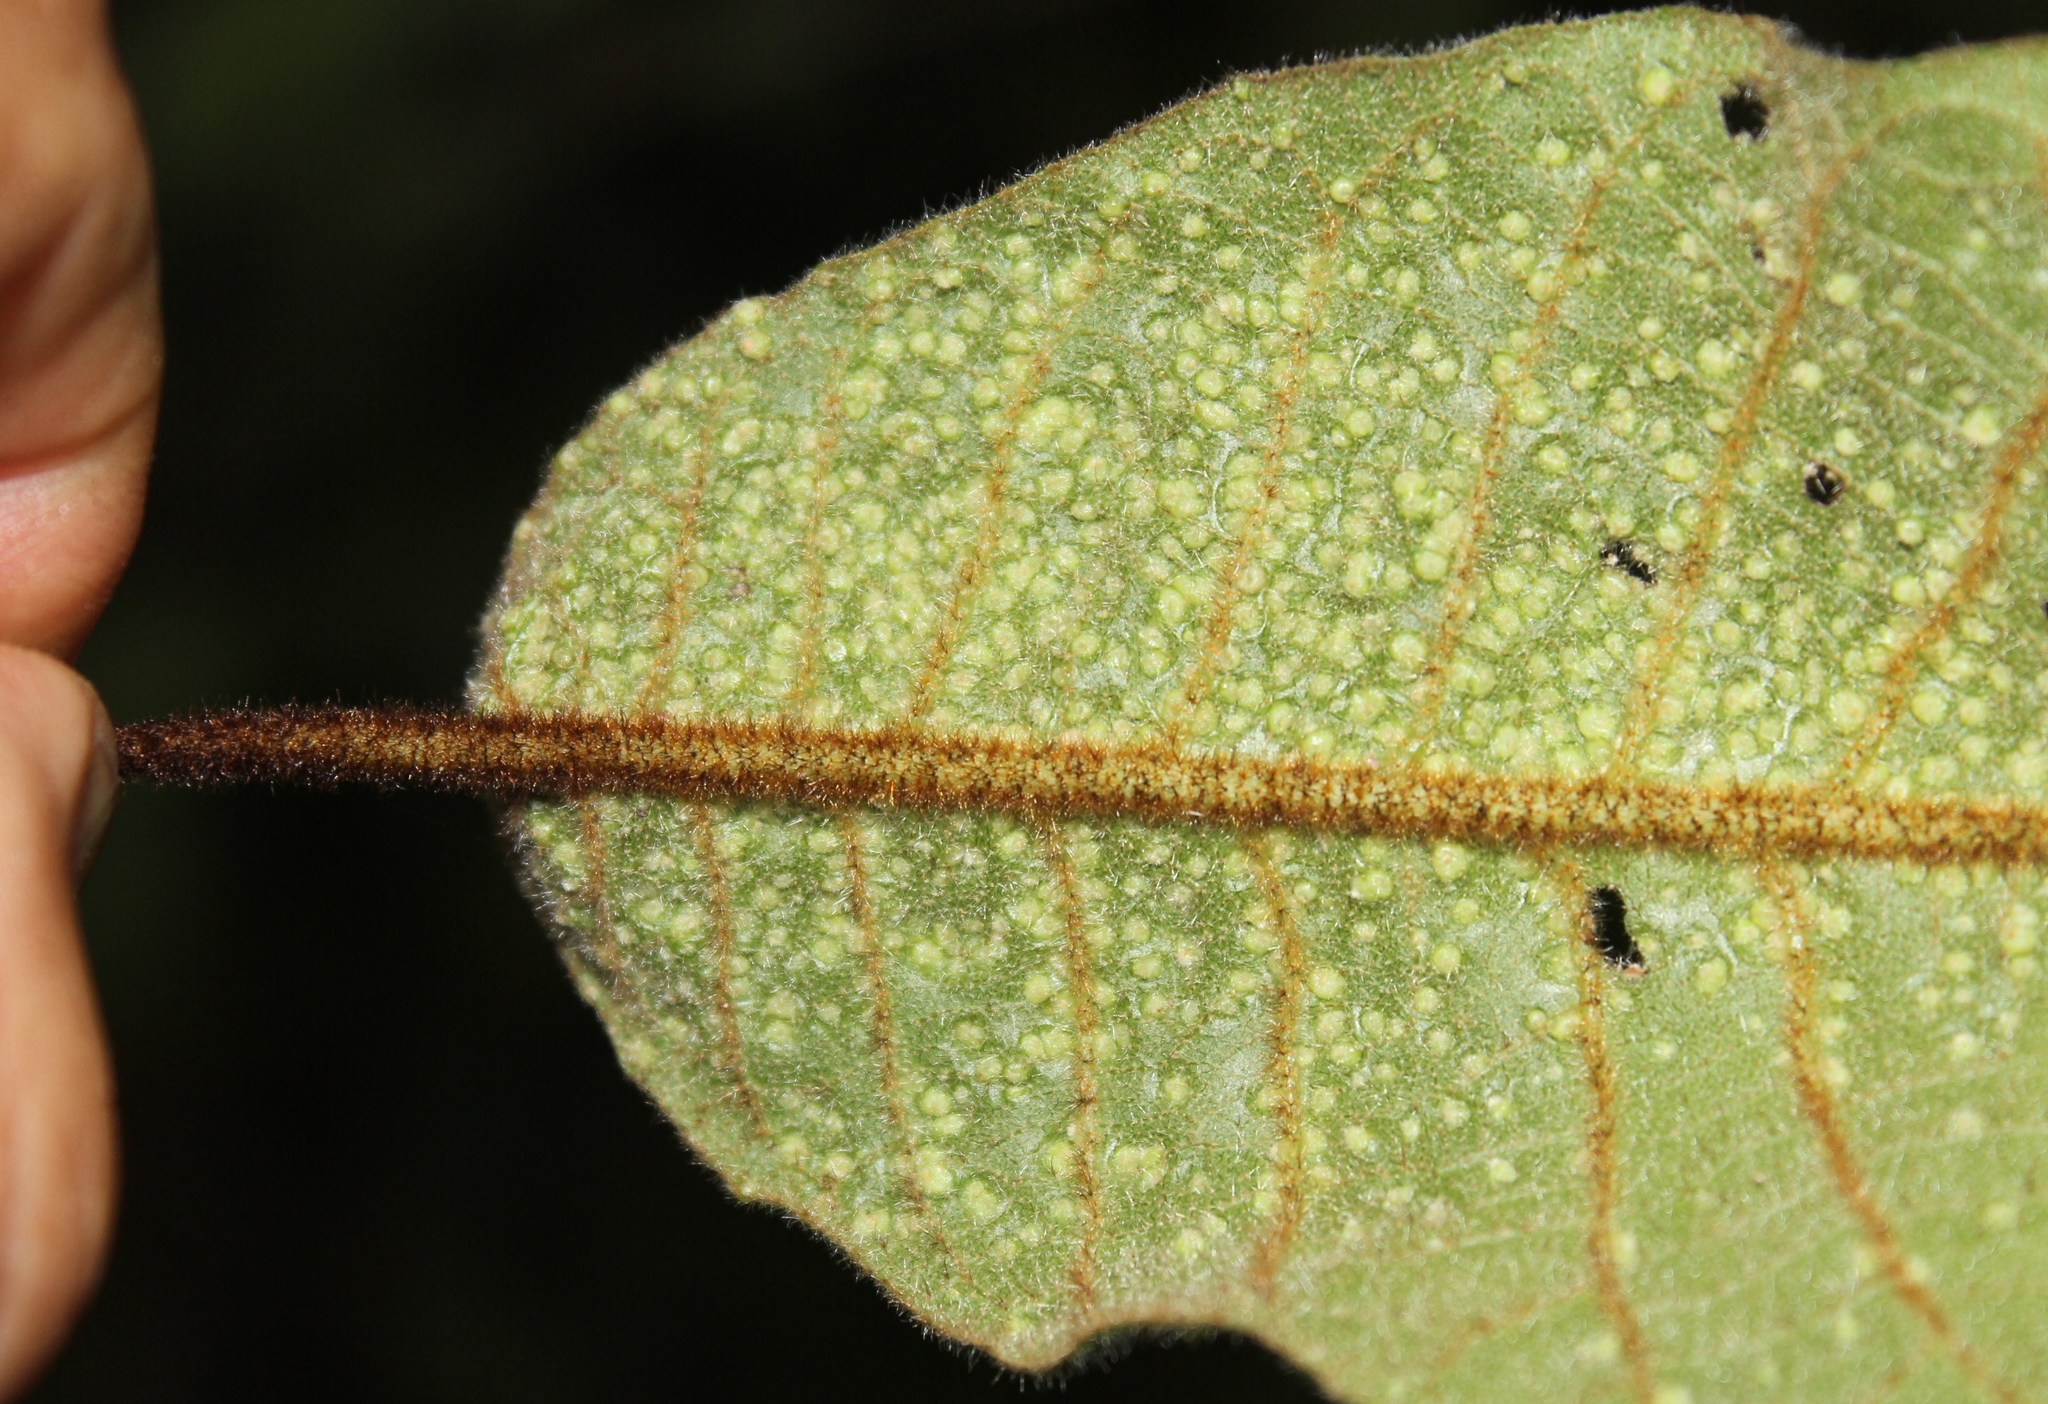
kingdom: Animalia
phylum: Arthropoda
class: Arachnida
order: Trombidiformes
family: Phytoptidae
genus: Phytoptus
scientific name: Phytoptus
